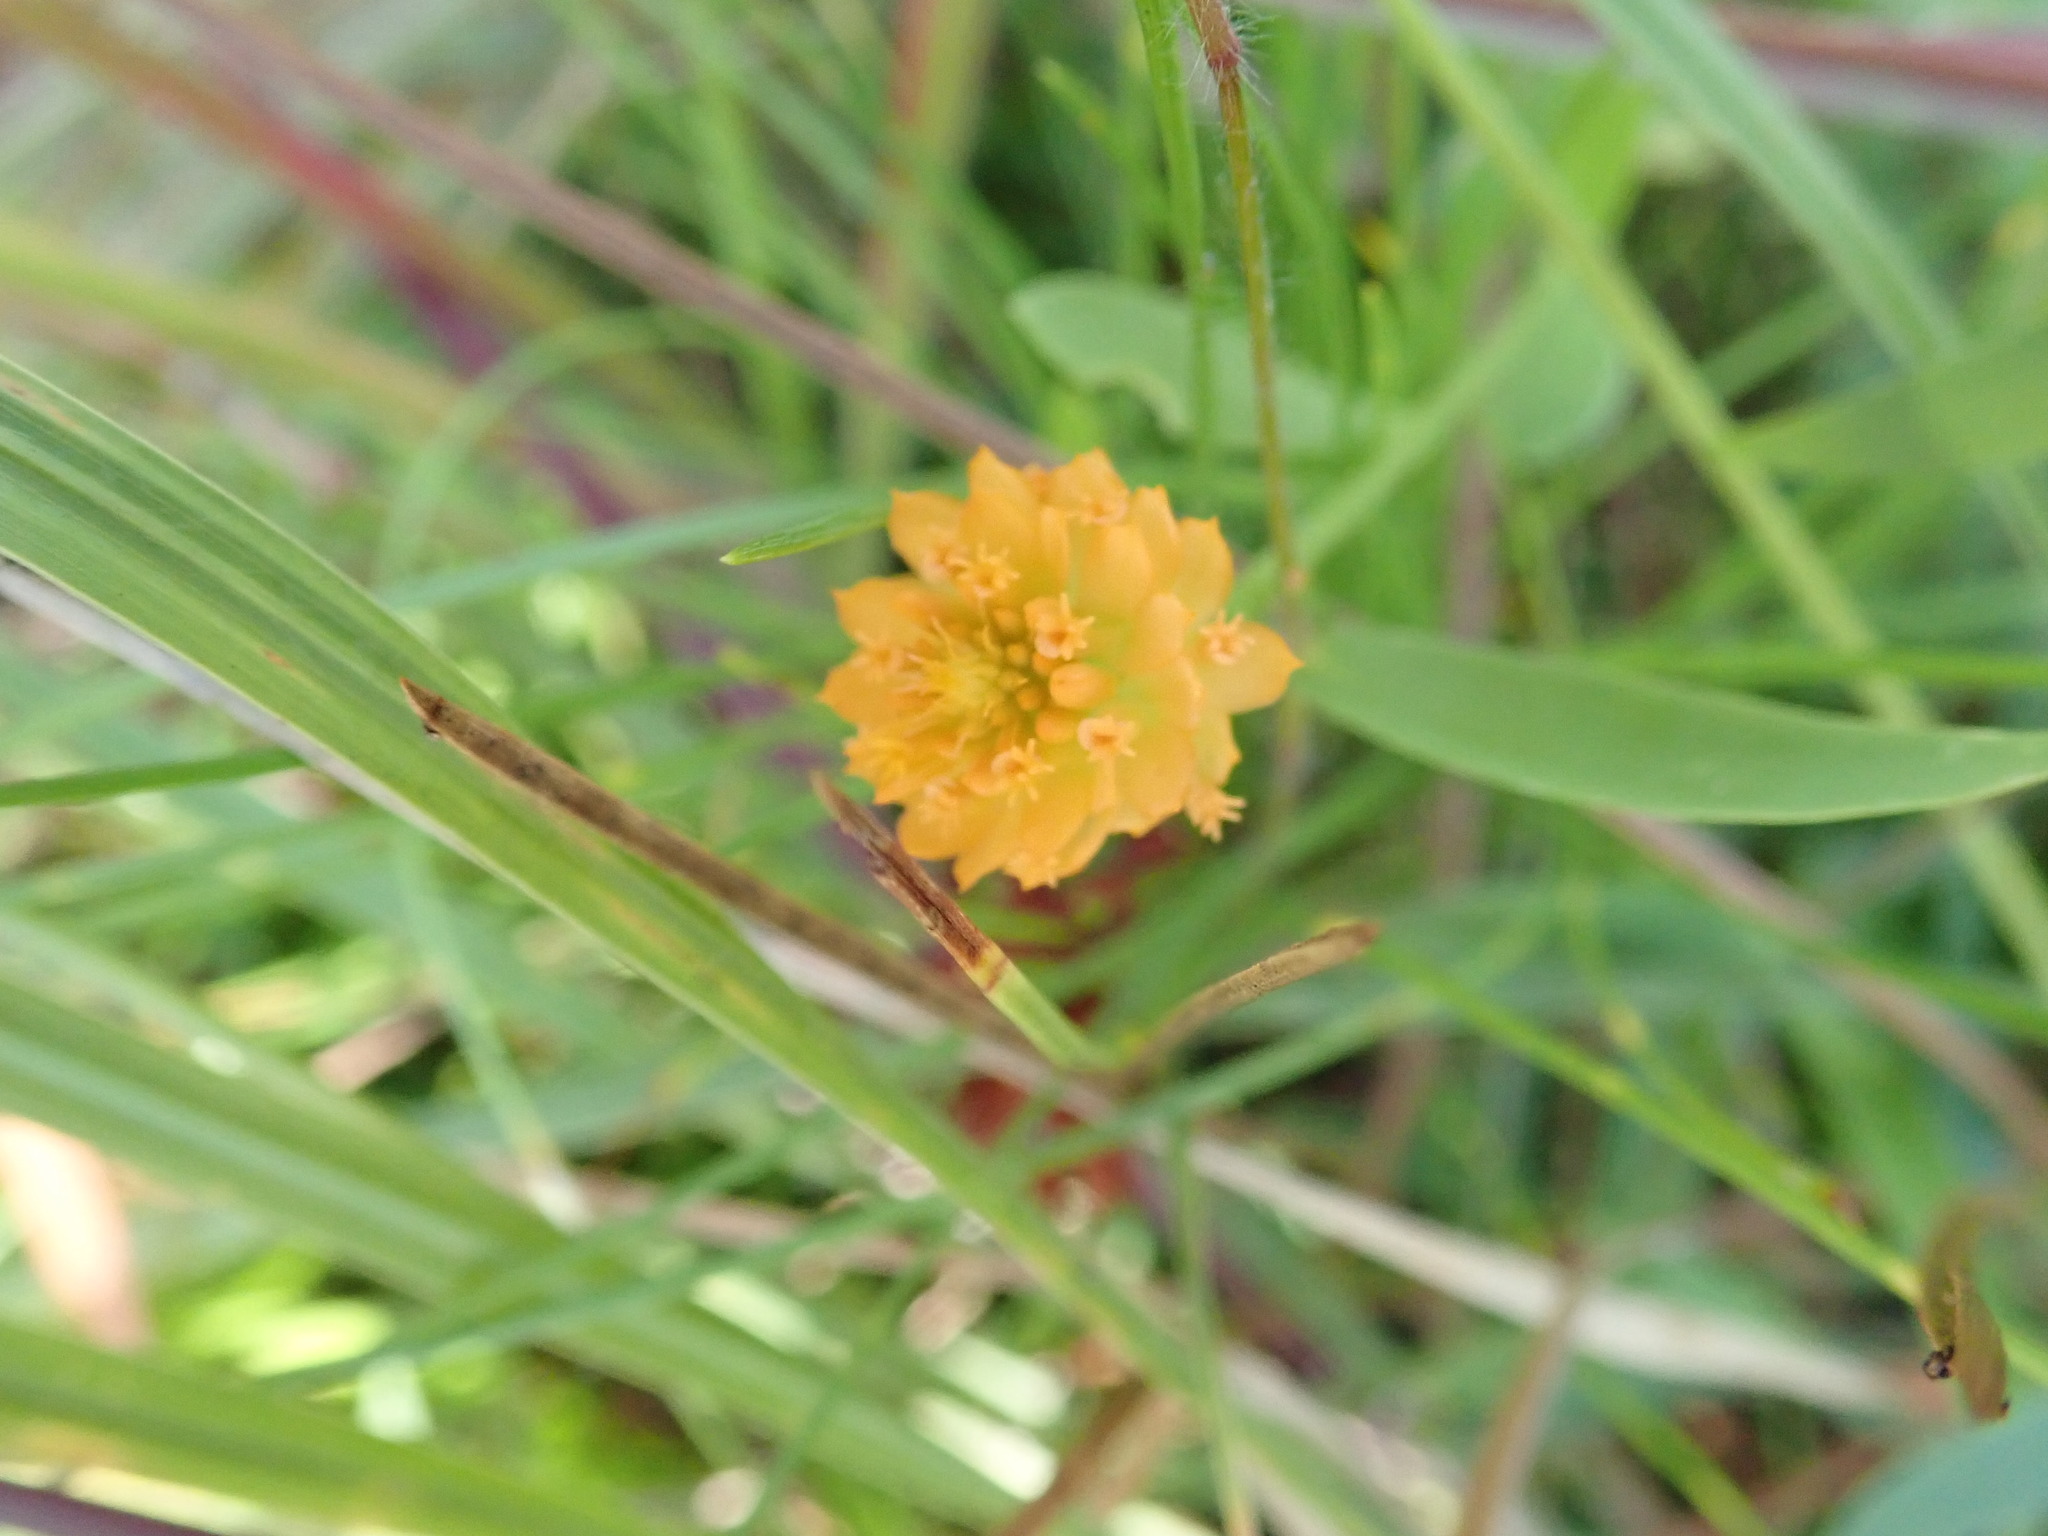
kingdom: Plantae
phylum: Tracheophyta
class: Magnoliopsida
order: Fabales
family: Polygalaceae
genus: Polygala
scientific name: Polygala lutea
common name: Orange milkwort
